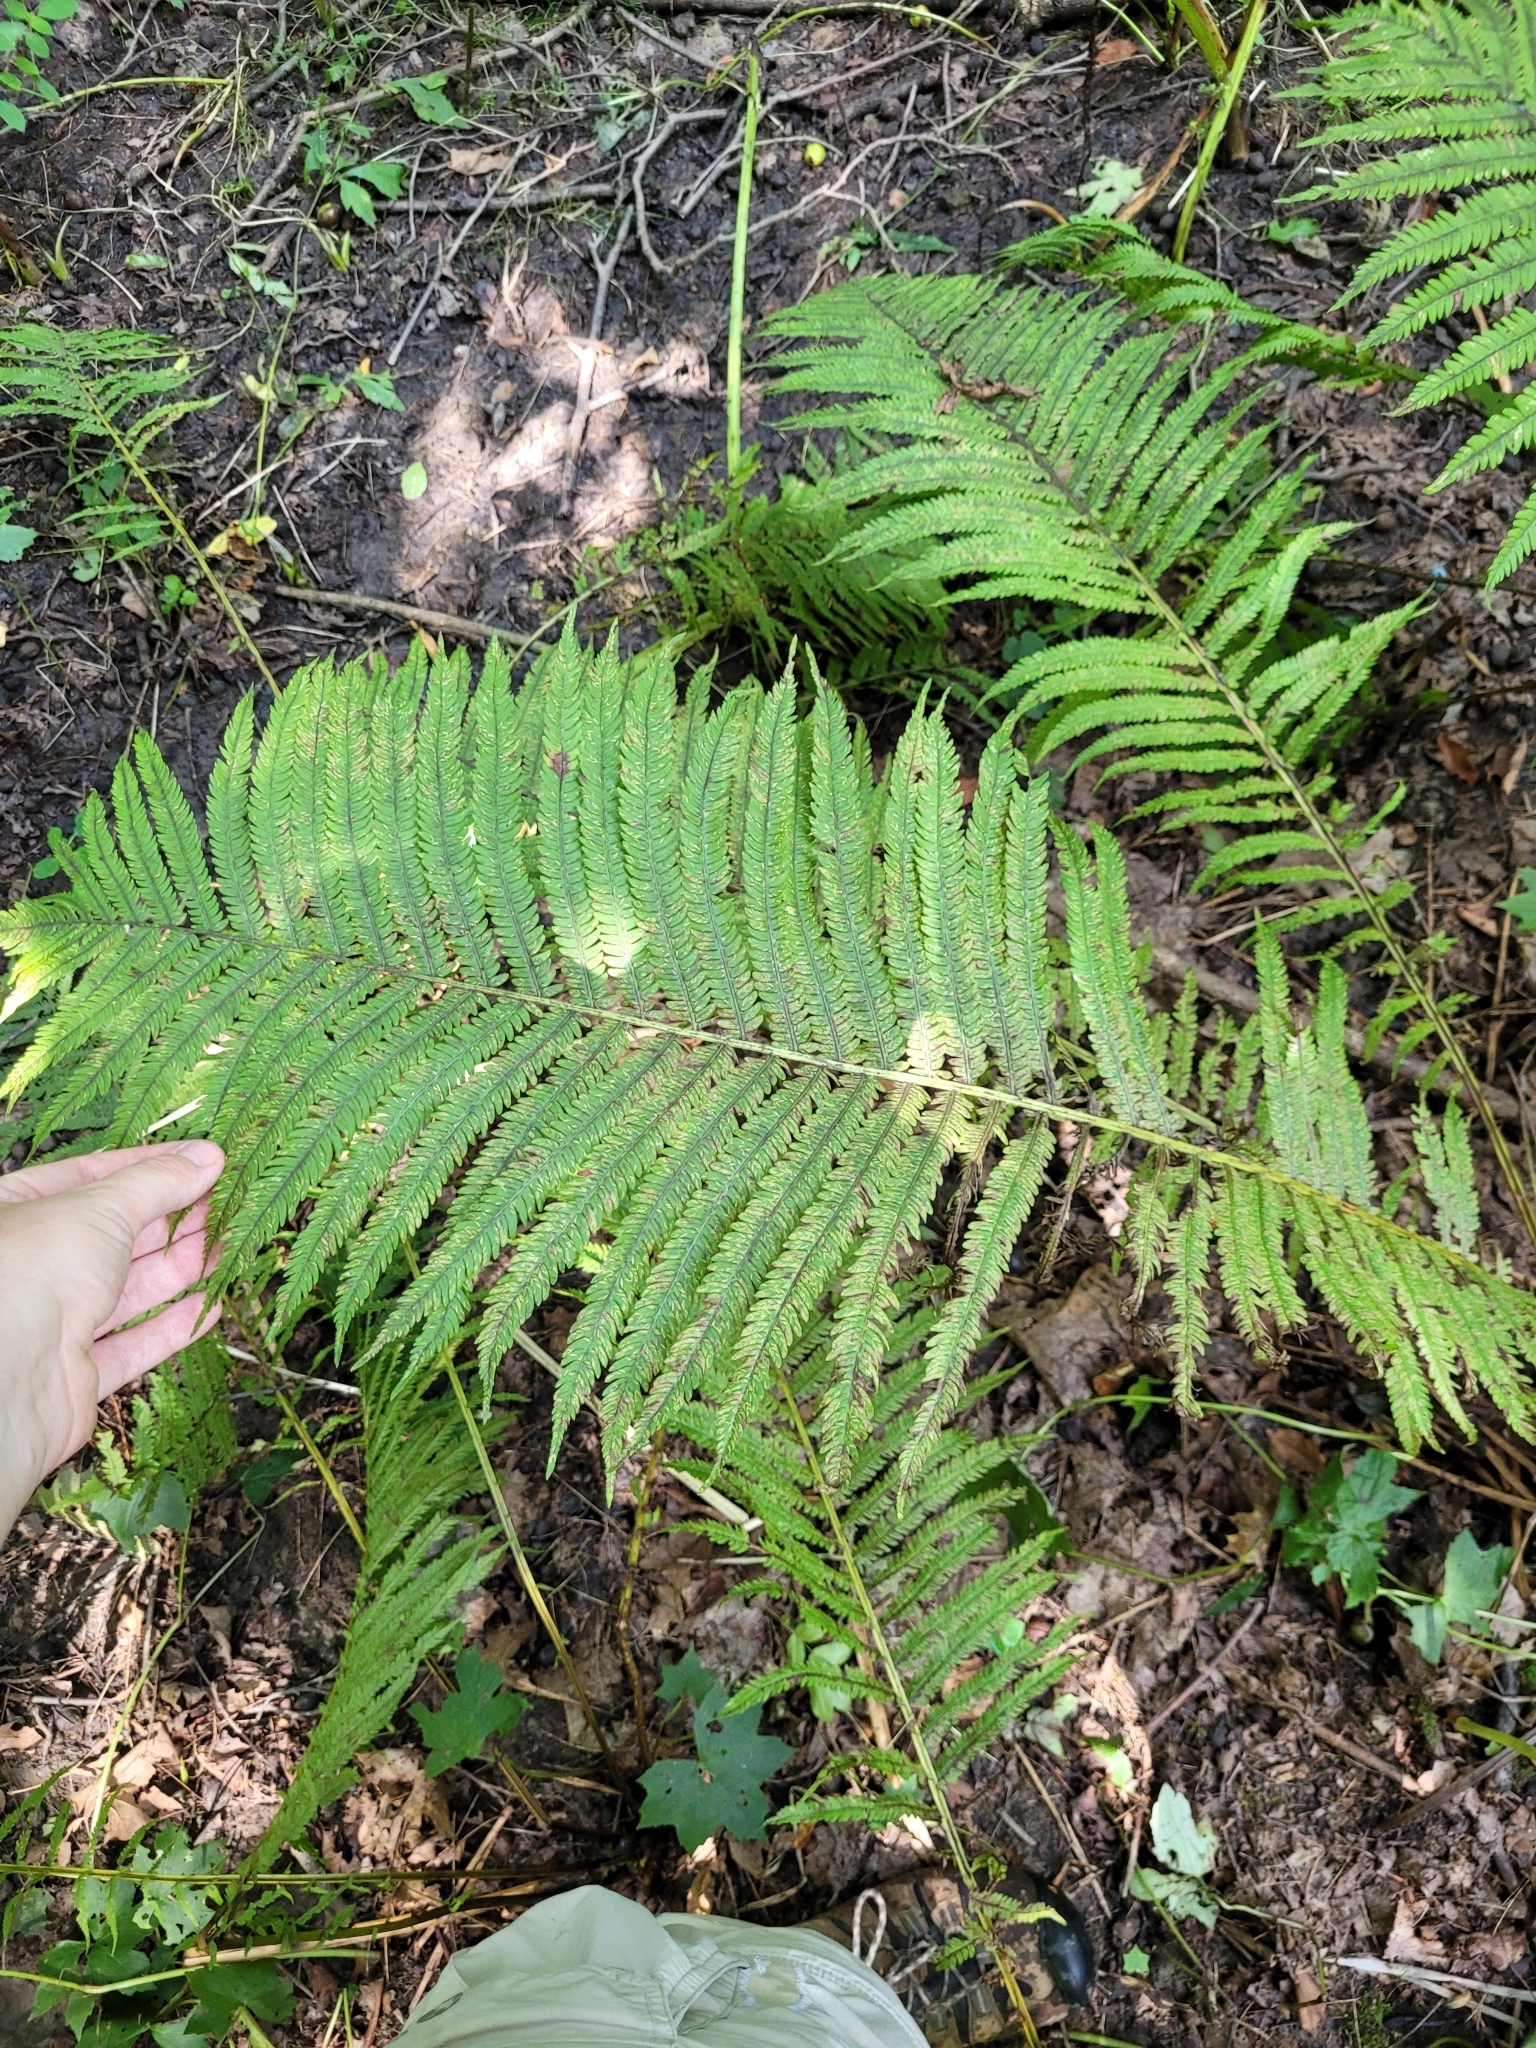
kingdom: Plantae
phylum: Tracheophyta
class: Polypodiopsida
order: Polypodiales
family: Onocleaceae
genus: Matteuccia
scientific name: Matteuccia struthiopteris
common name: Ostrich fern
